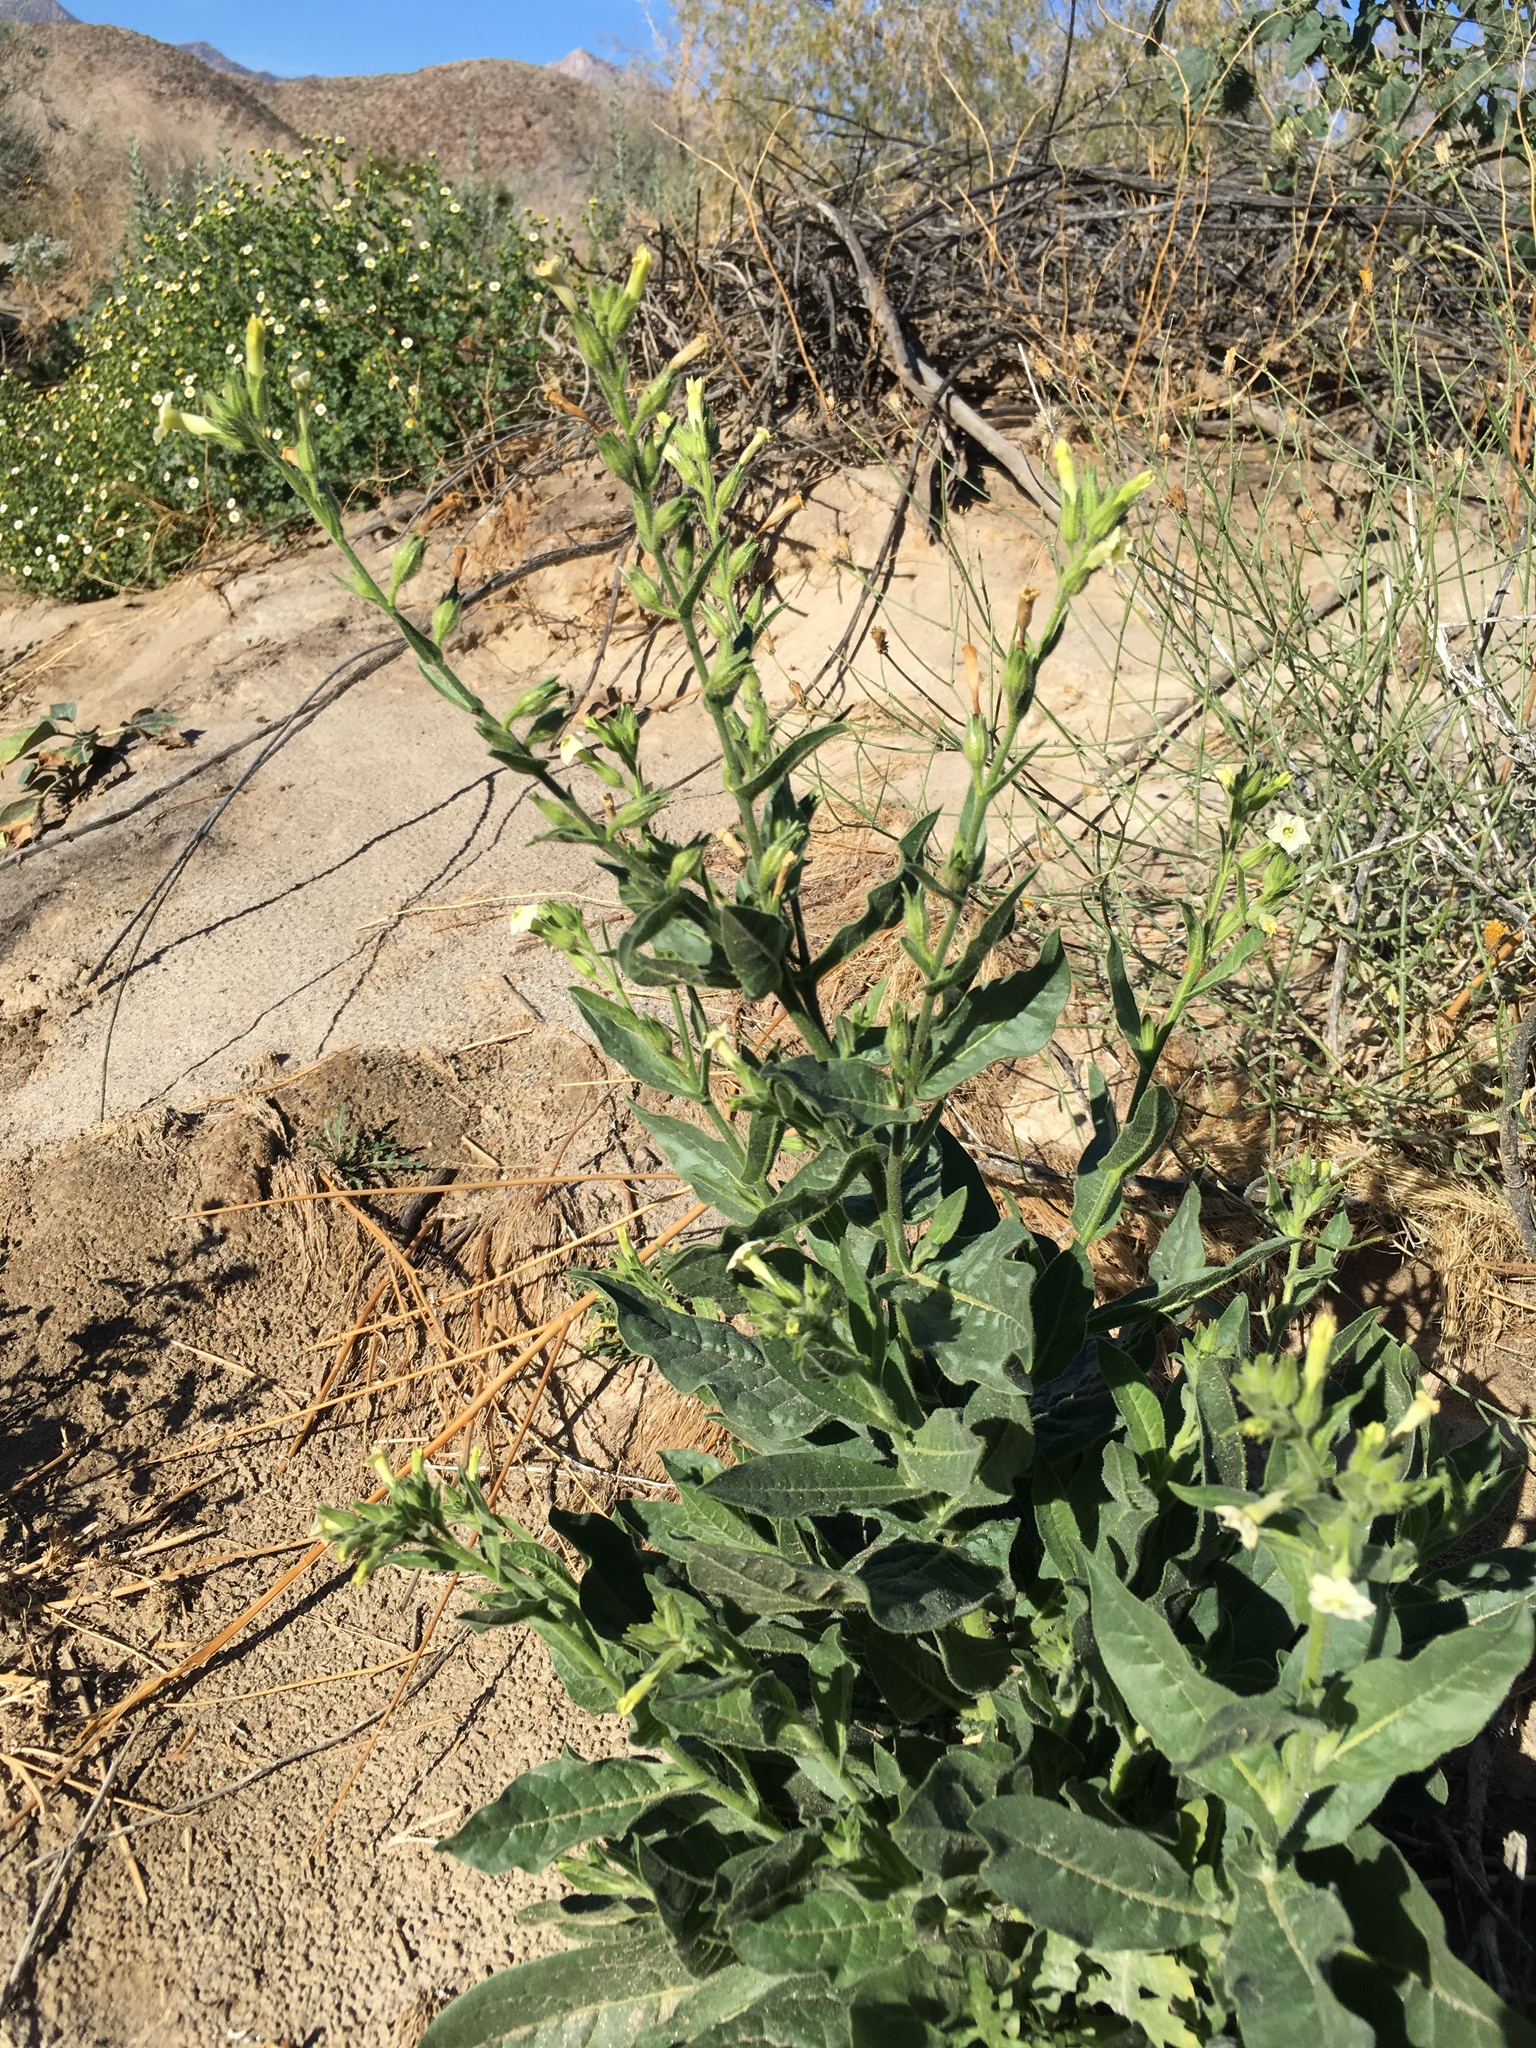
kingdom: Plantae
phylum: Tracheophyta
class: Magnoliopsida
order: Solanales
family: Solanaceae
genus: Nicotiana
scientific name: Nicotiana obtusifolia
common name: Desert tobacco
